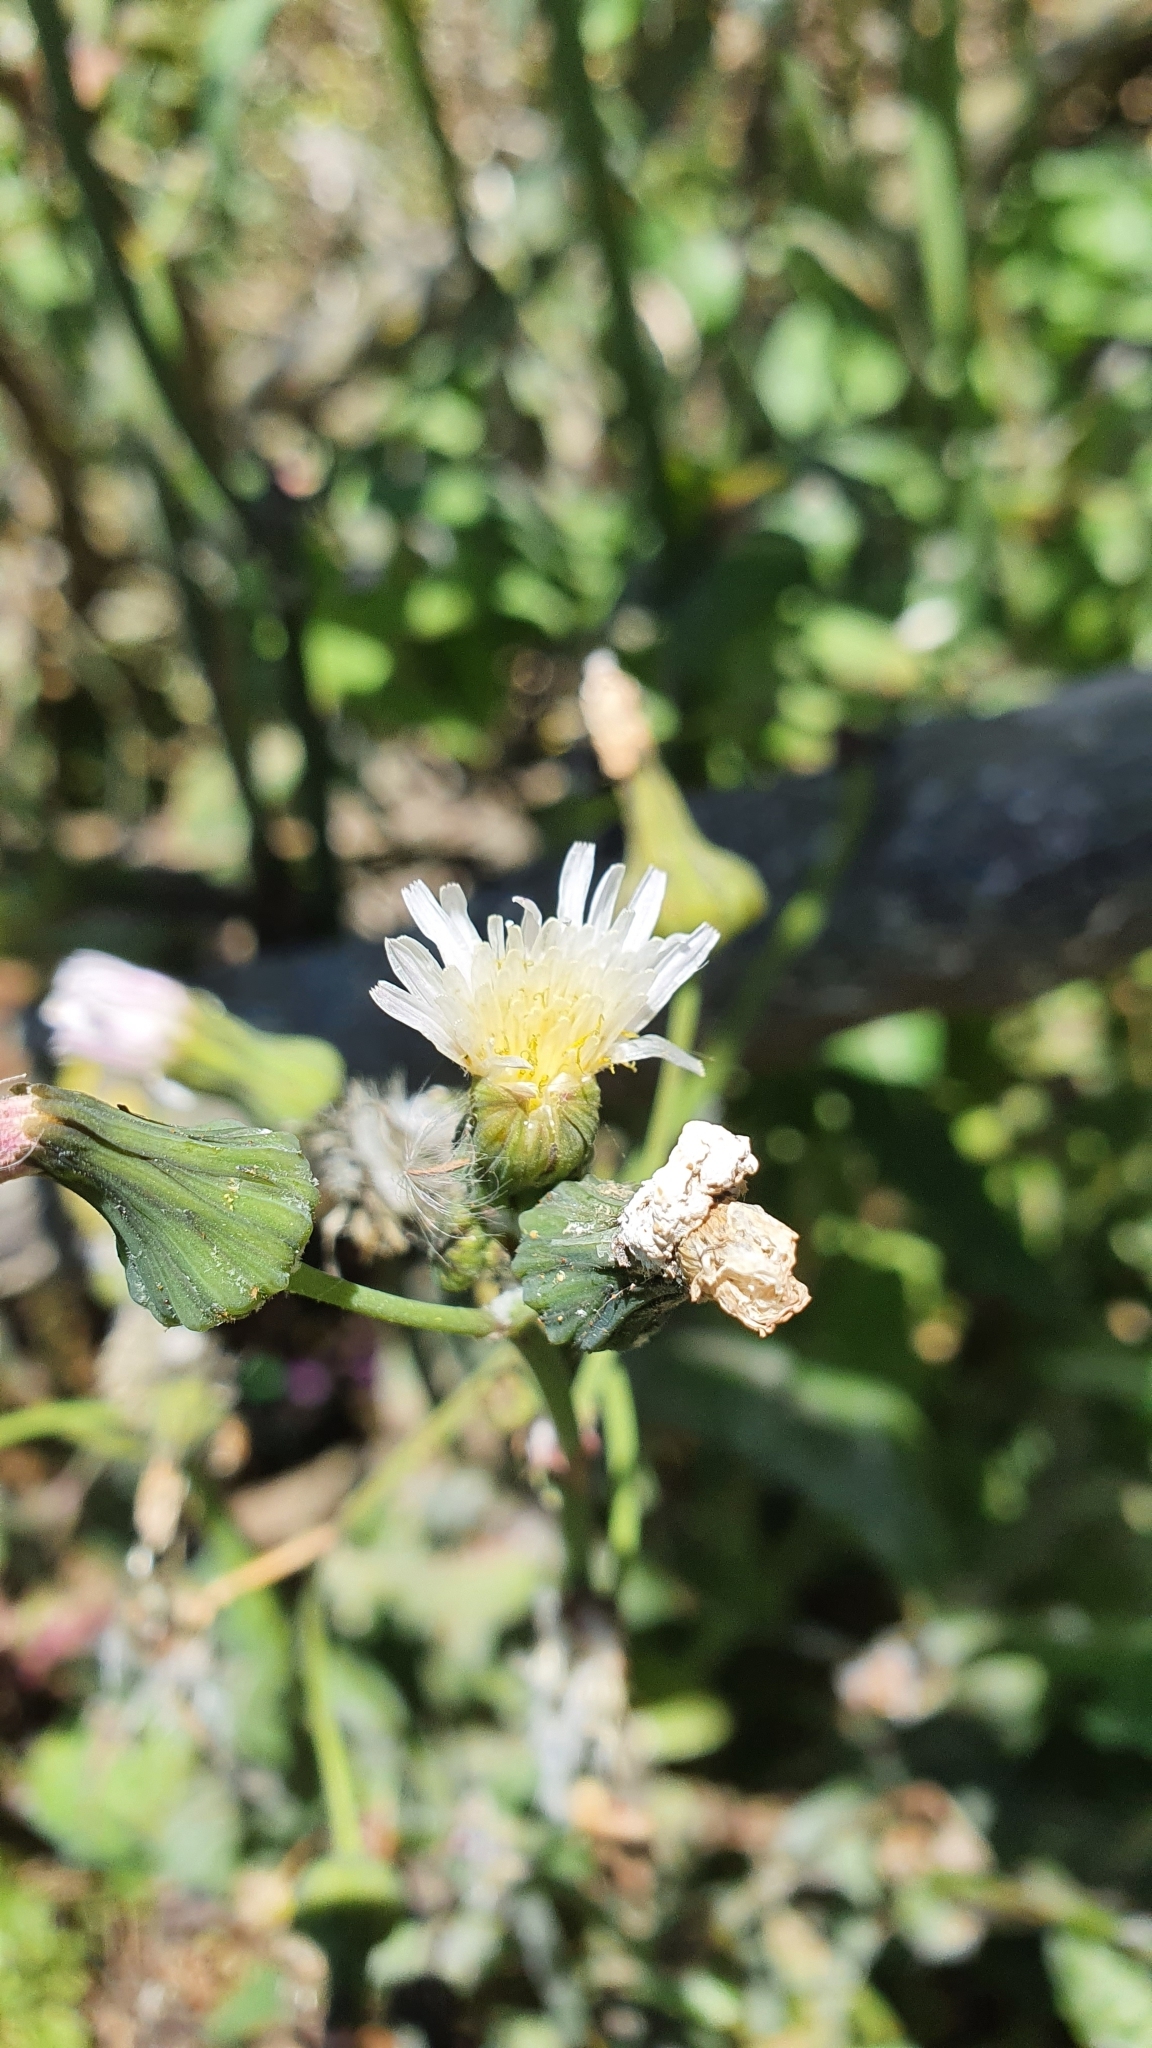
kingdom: Plantae
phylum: Tracheophyta
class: Magnoliopsida
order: Asterales
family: Asteraceae
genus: Sonchus
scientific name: Sonchus oleraceus
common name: Common sowthistle
